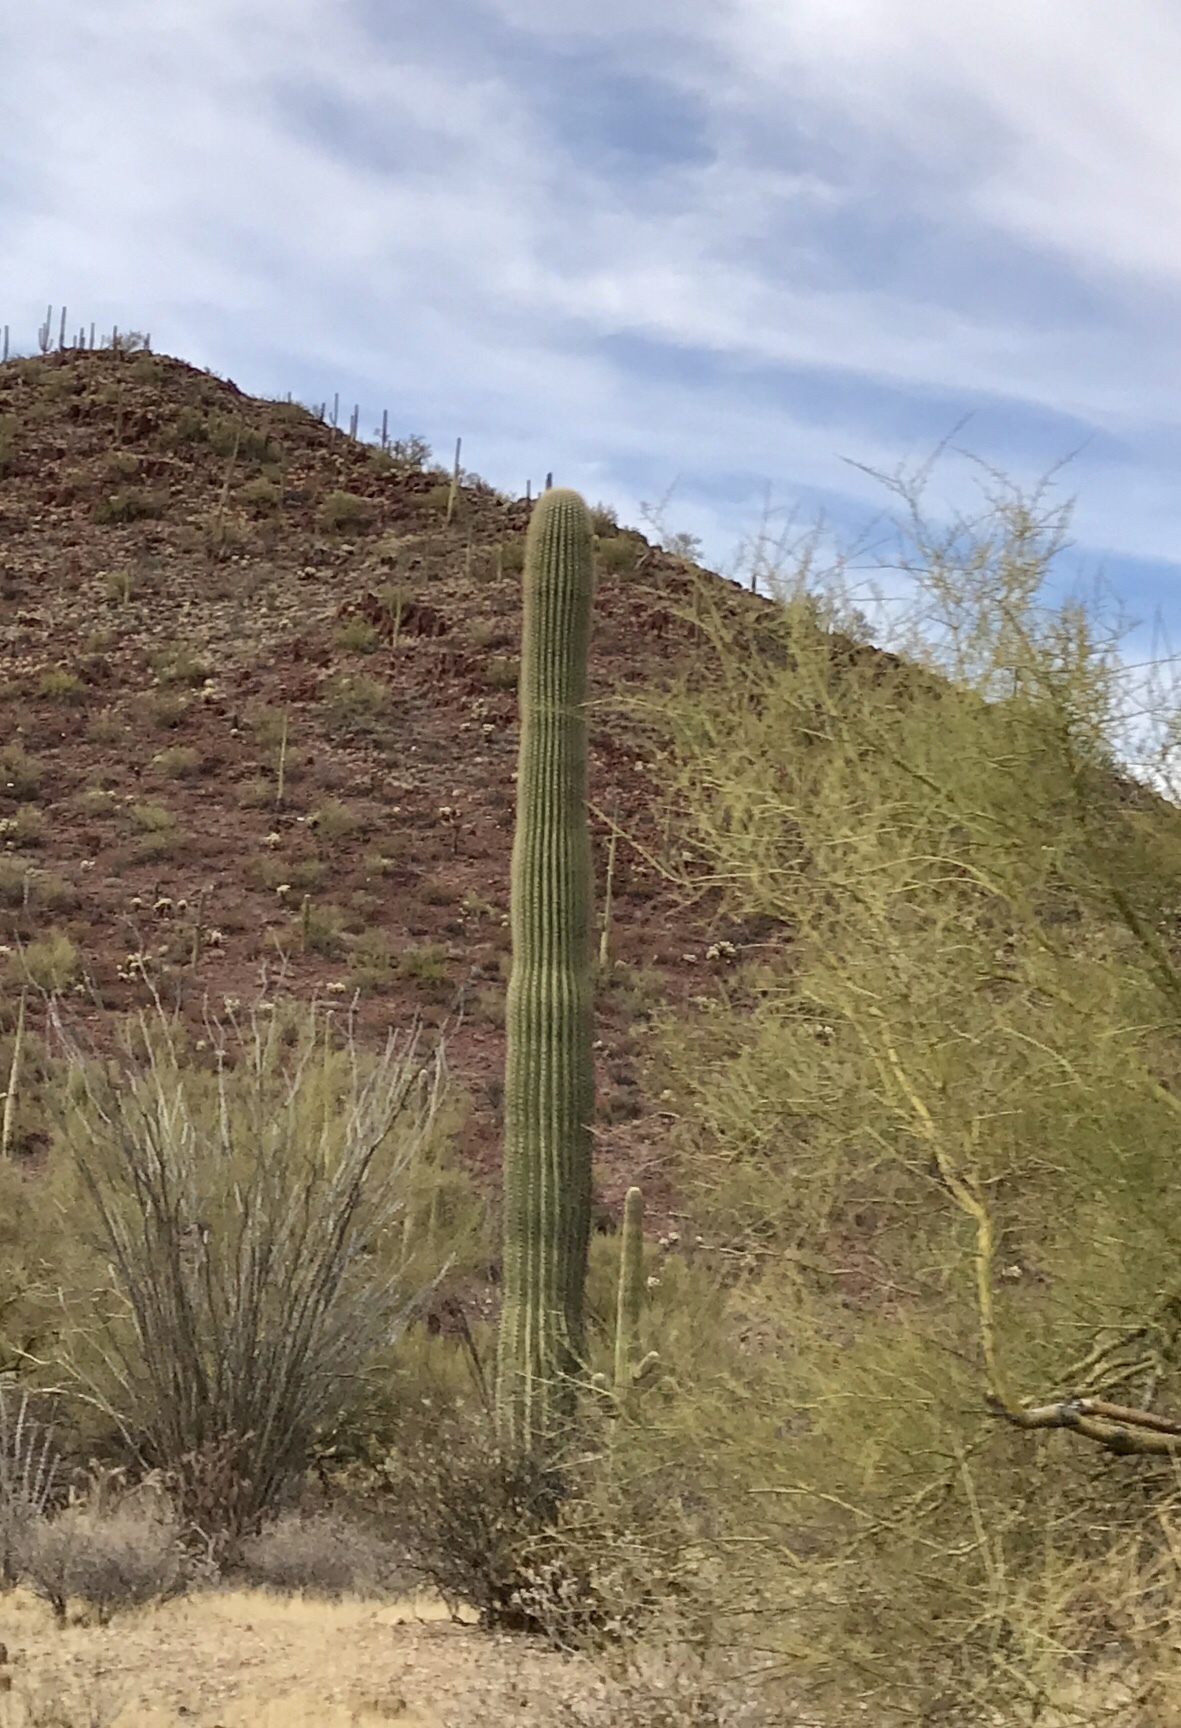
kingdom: Plantae
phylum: Tracheophyta
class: Magnoliopsida
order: Caryophyllales
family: Cactaceae
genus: Carnegiea
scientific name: Carnegiea gigantea
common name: Saguaro
